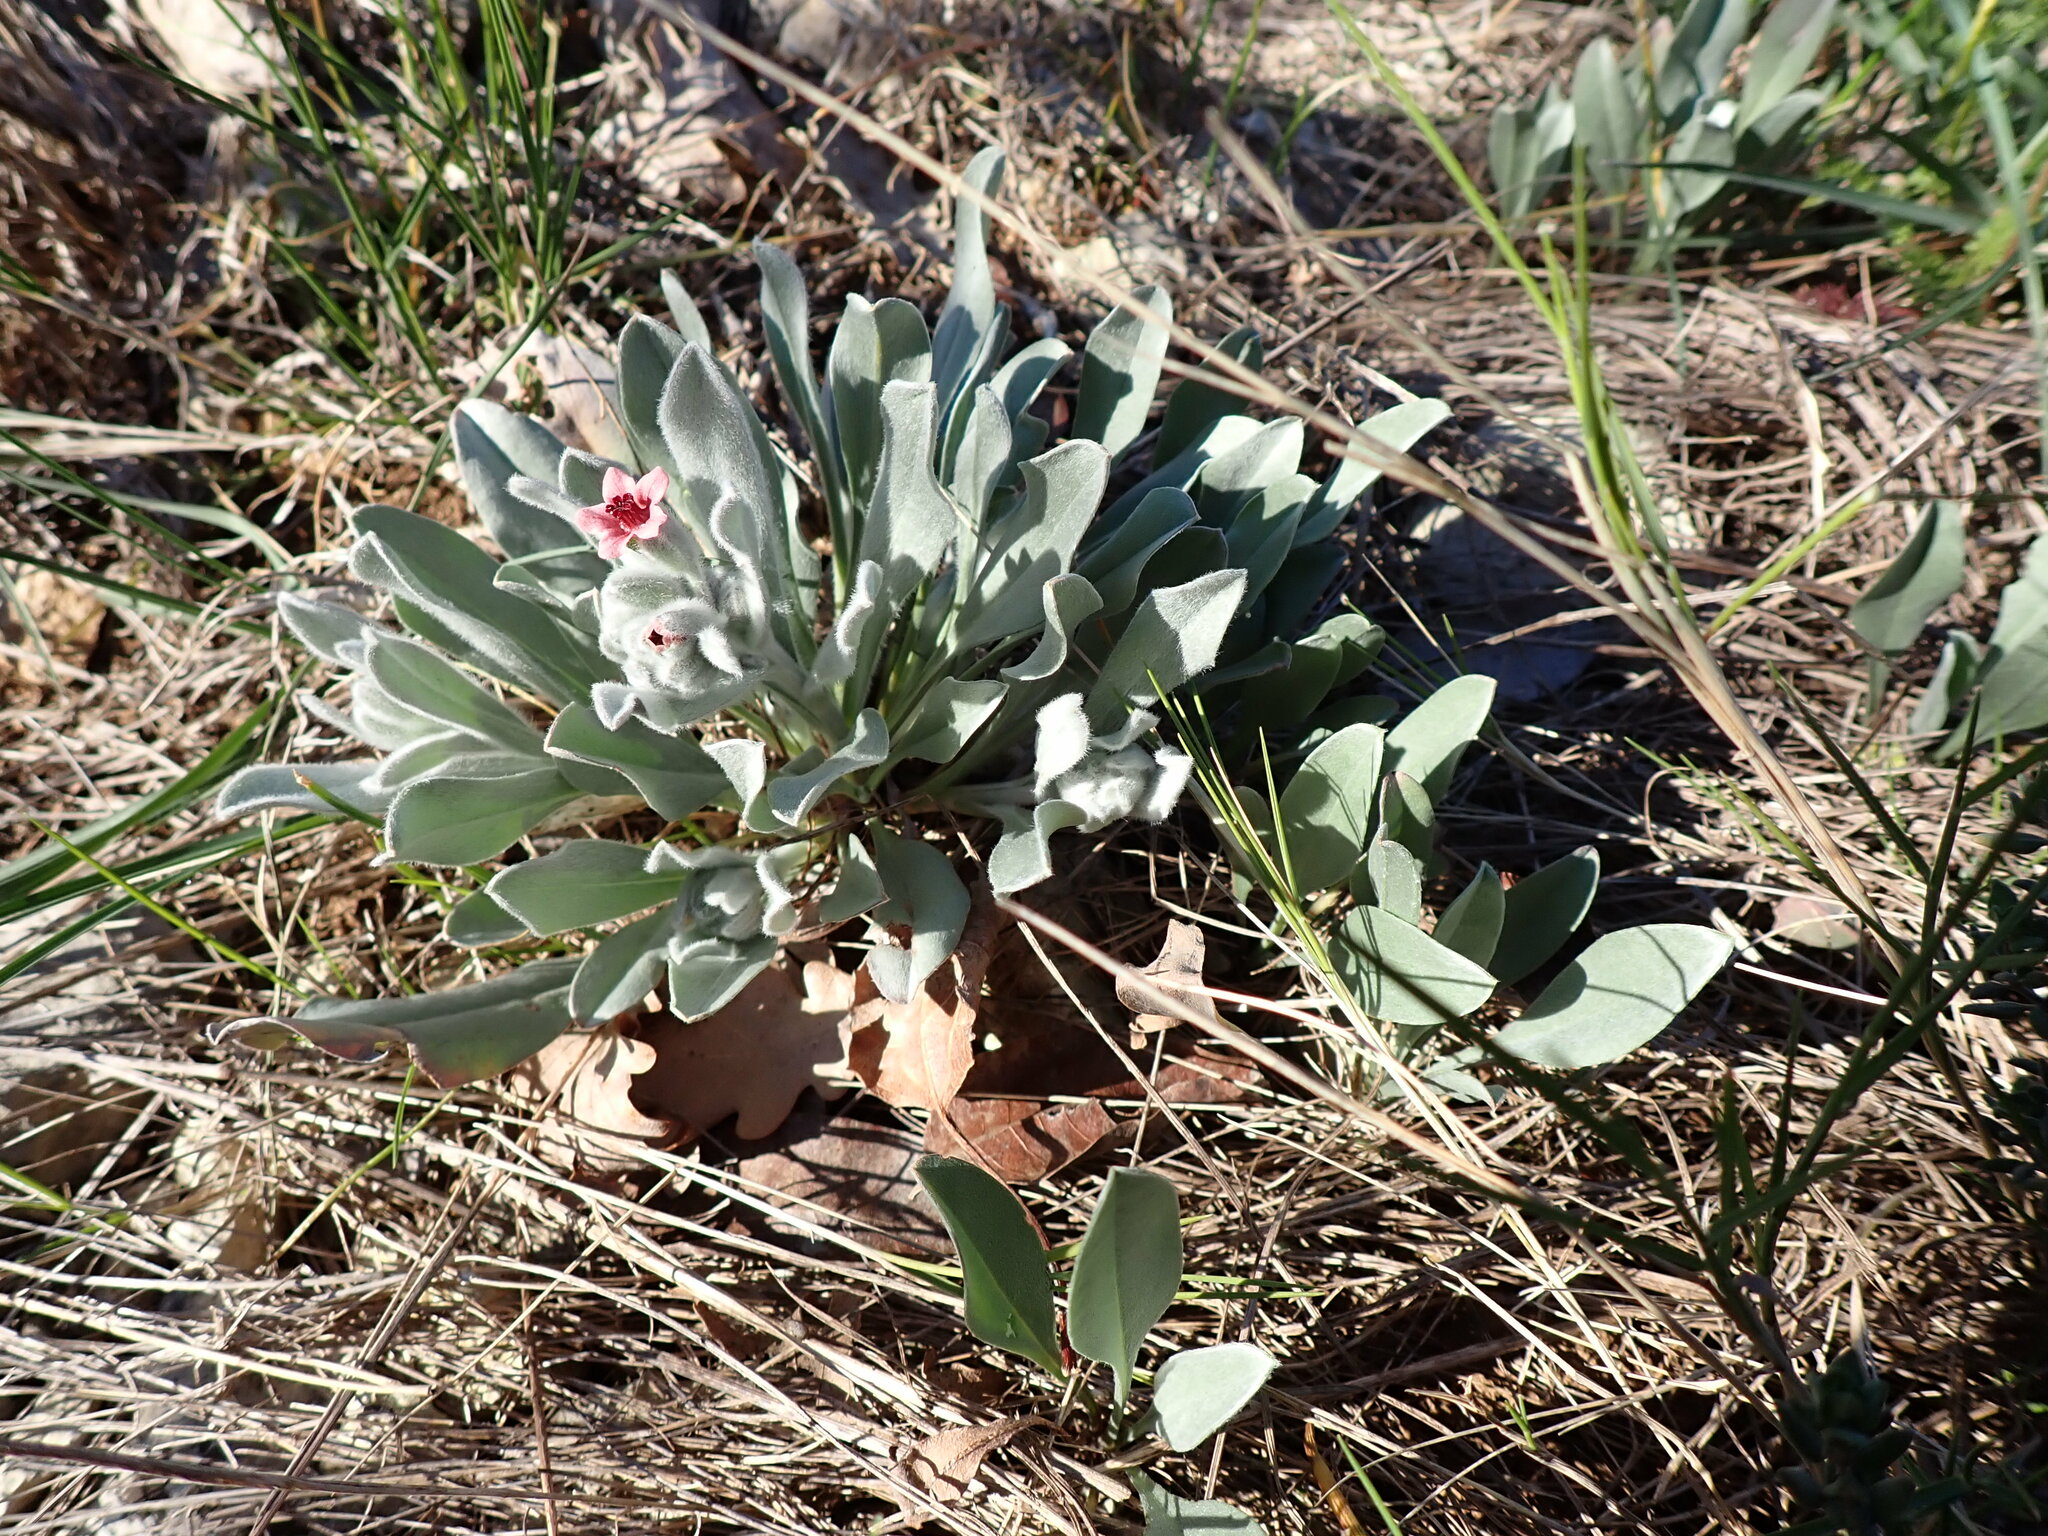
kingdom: Plantae
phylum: Tracheophyta
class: Magnoliopsida
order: Boraginales
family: Boraginaceae
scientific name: Boraginaceae
